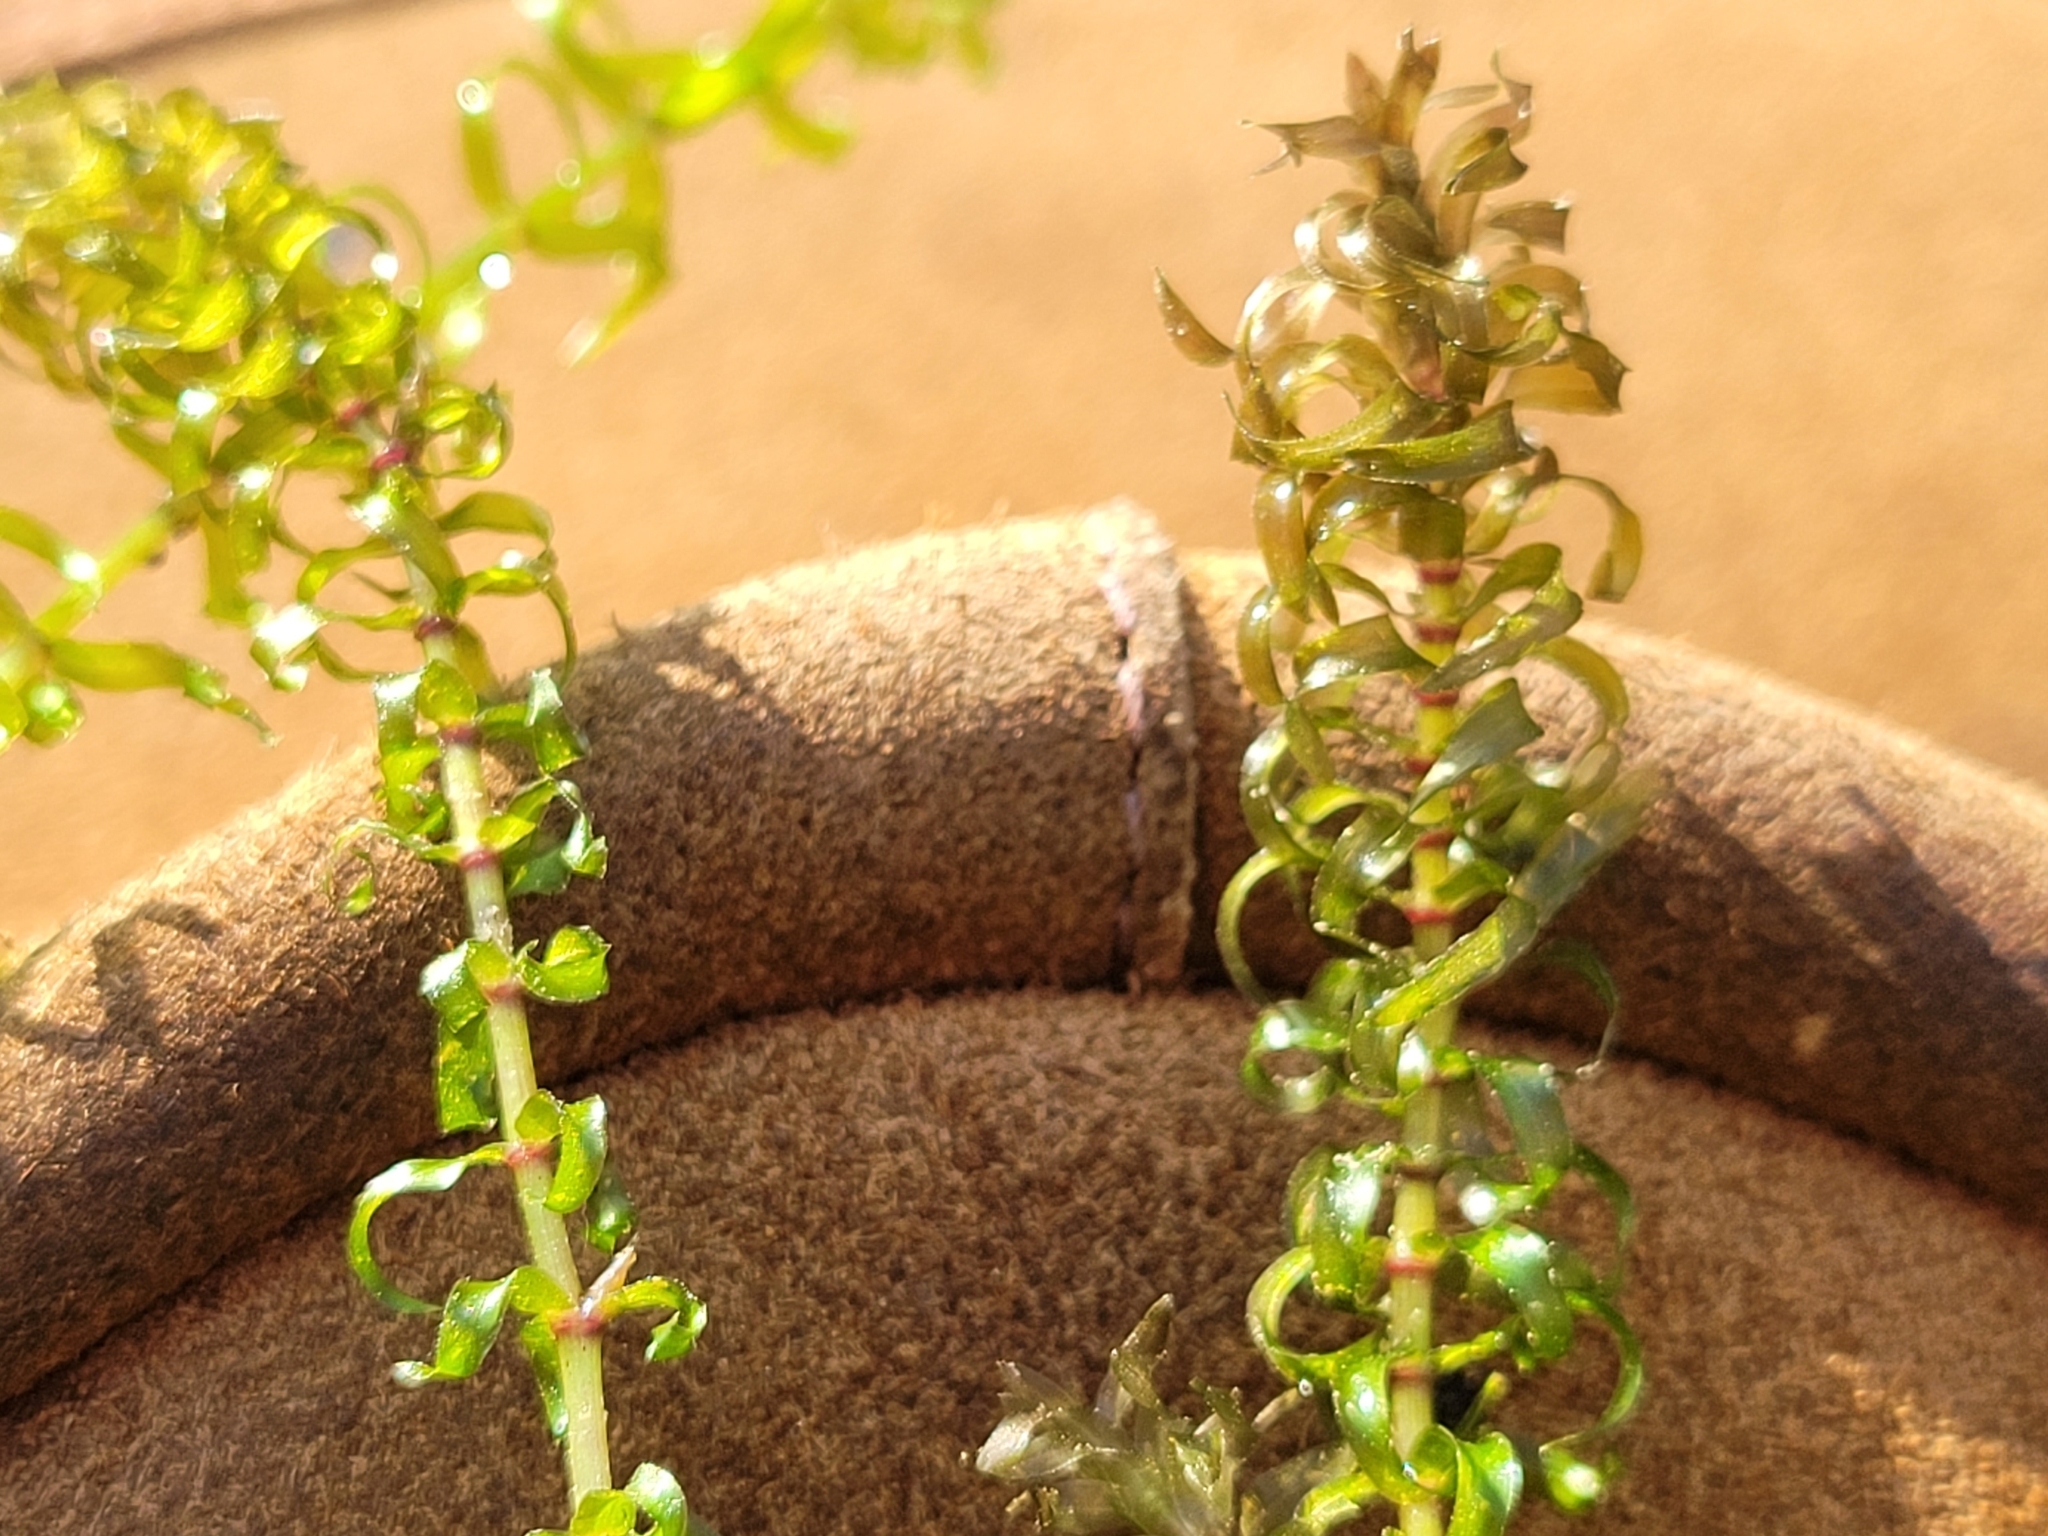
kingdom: Plantae
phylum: Tracheophyta
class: Liliopsida
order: Alismatales
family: Hydrocharitaceae
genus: Elodea
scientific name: Elodea nuttallii
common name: Nuttall's waterweed
